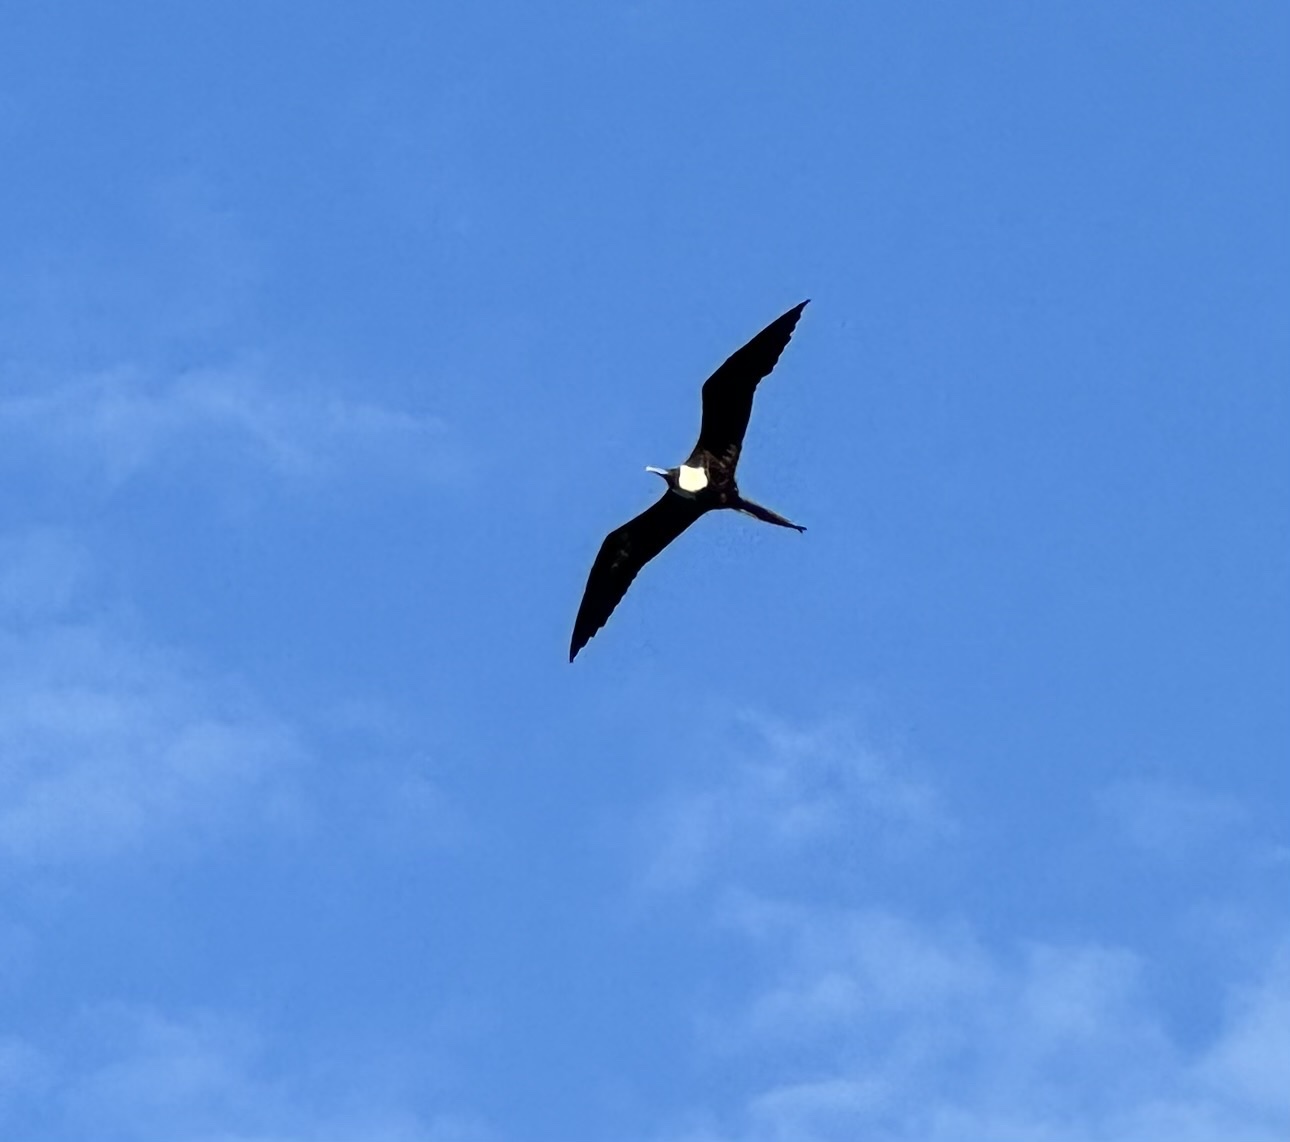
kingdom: Animalia
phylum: Chordata
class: Aves
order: Suliformes
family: Fregatidae
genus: Fregata
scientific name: Fregata magnificens
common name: Magnificent frigatebird
